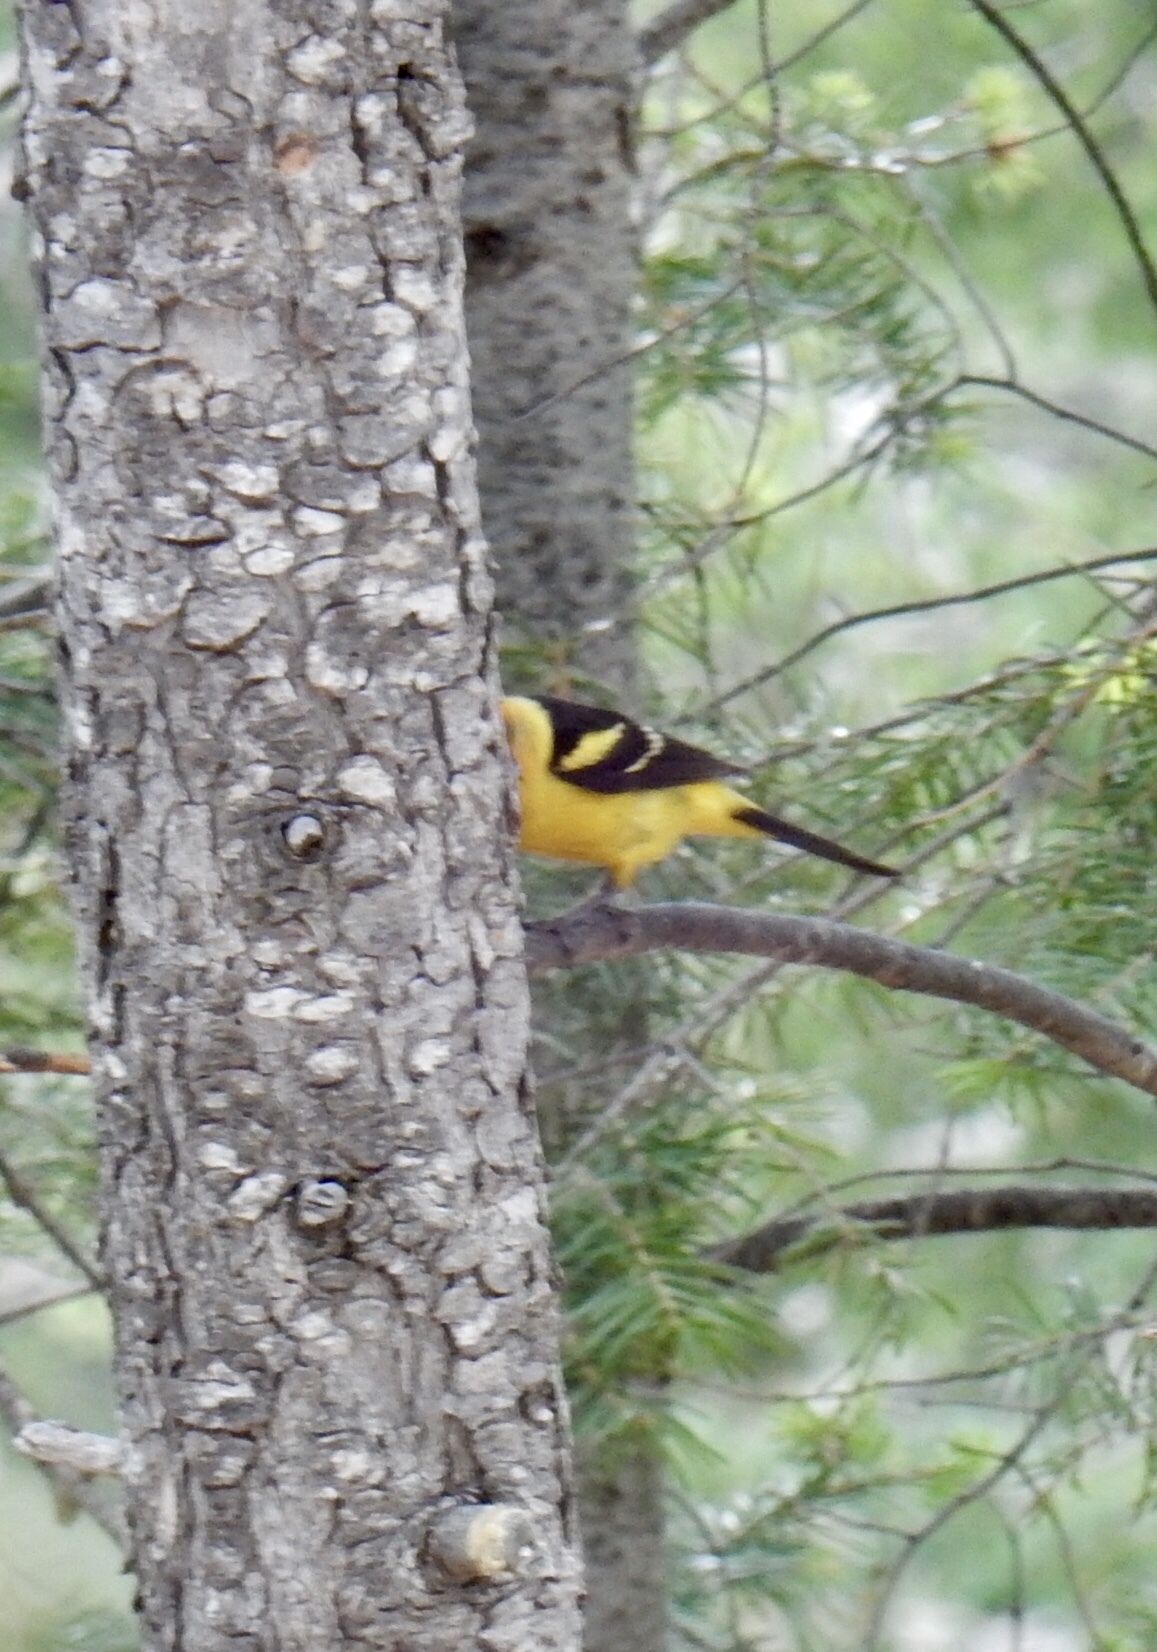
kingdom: Animalia
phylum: Chordata
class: Aves
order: Passeriformes
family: Cardinalidae
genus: Piranga
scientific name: Piranga ludoviciana
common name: Western tanager
